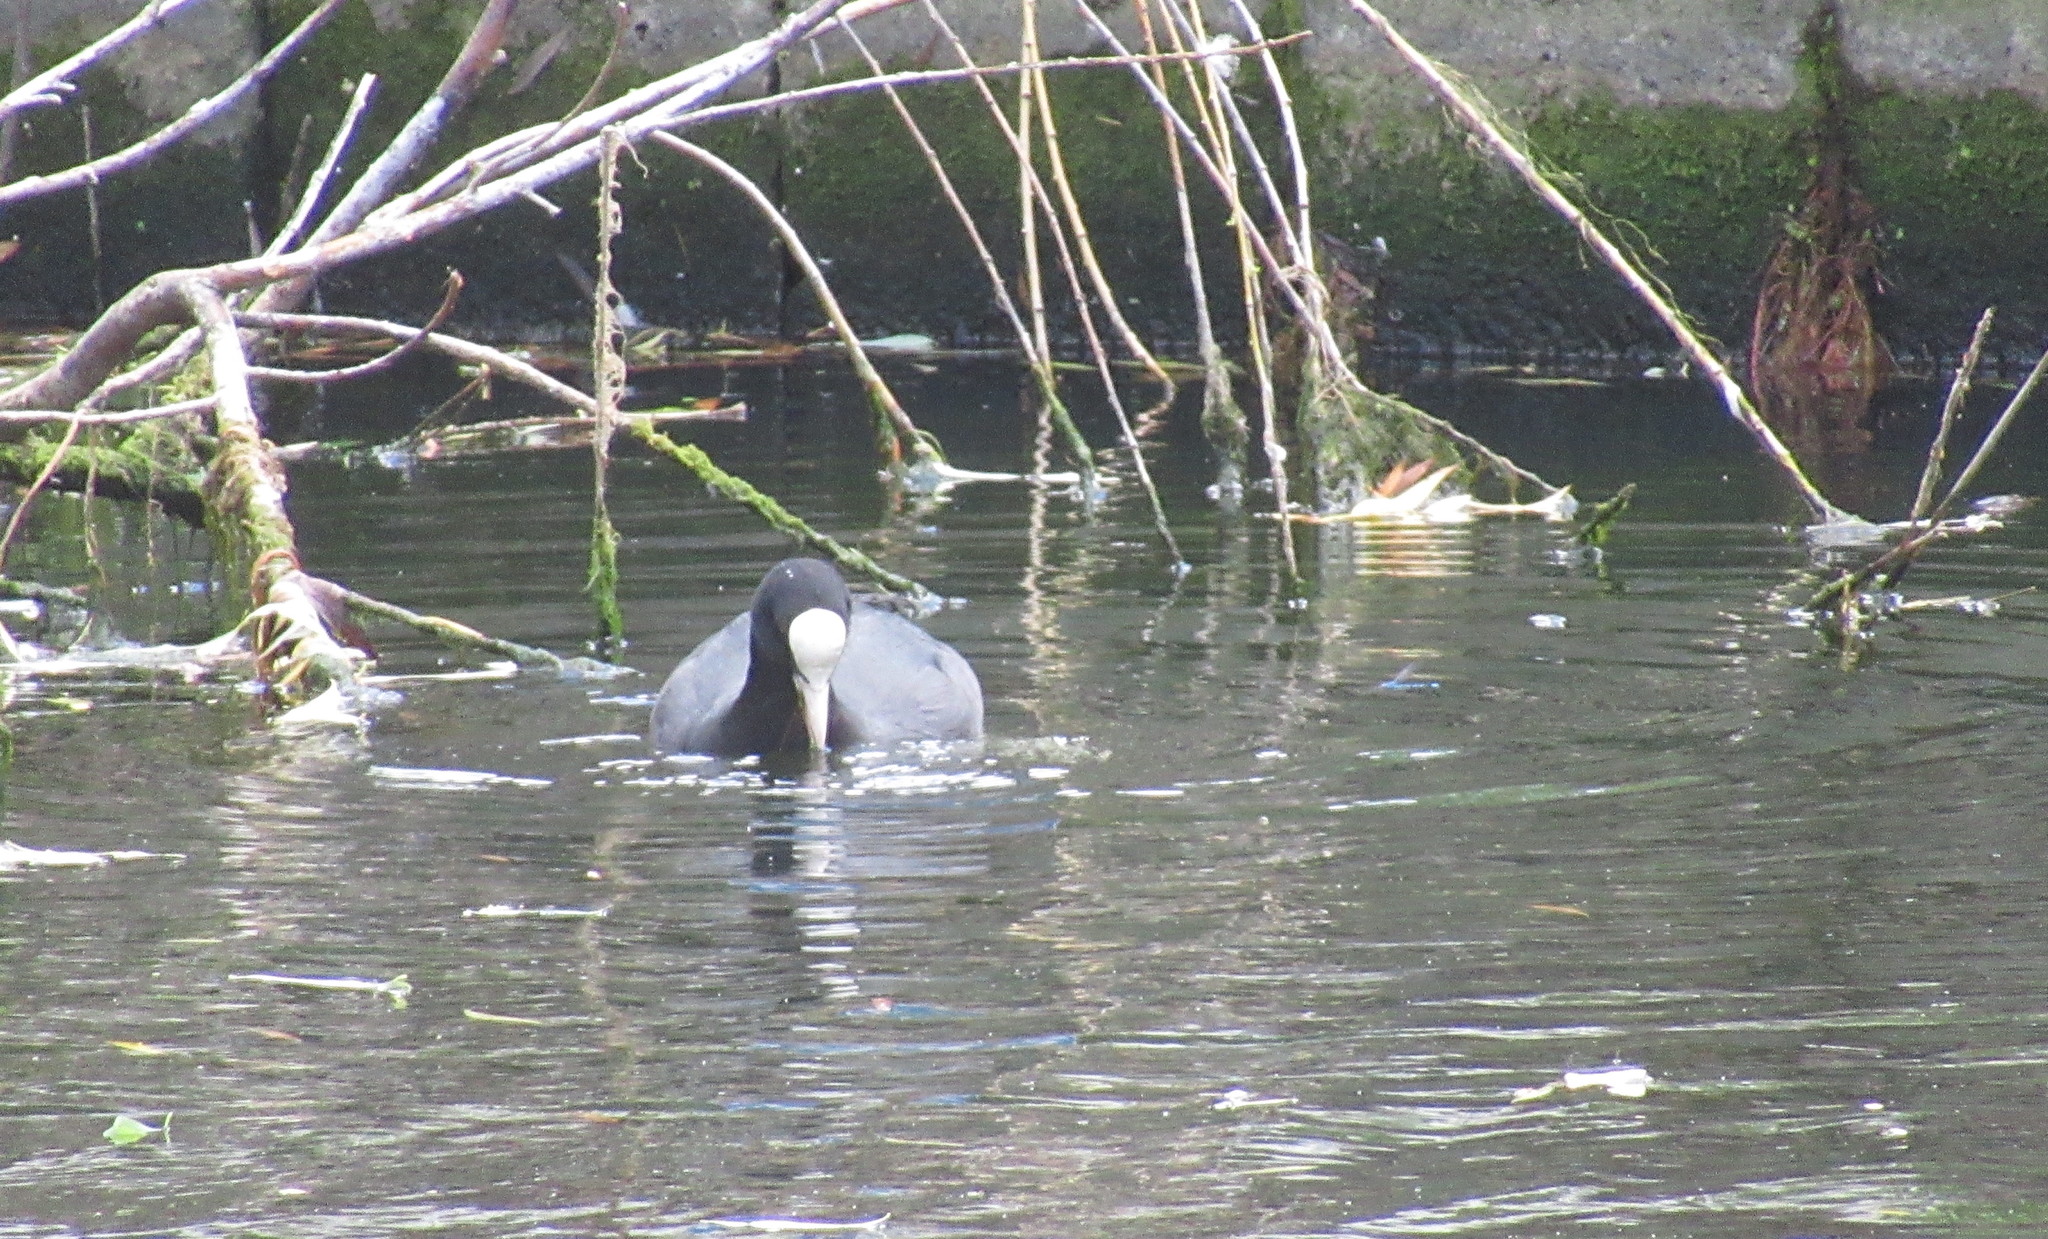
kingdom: Animalia
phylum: Chordata
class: Aves
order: Gruiformes
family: Rallidae
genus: Fulica
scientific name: Fulica atra
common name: Eurasian coot
